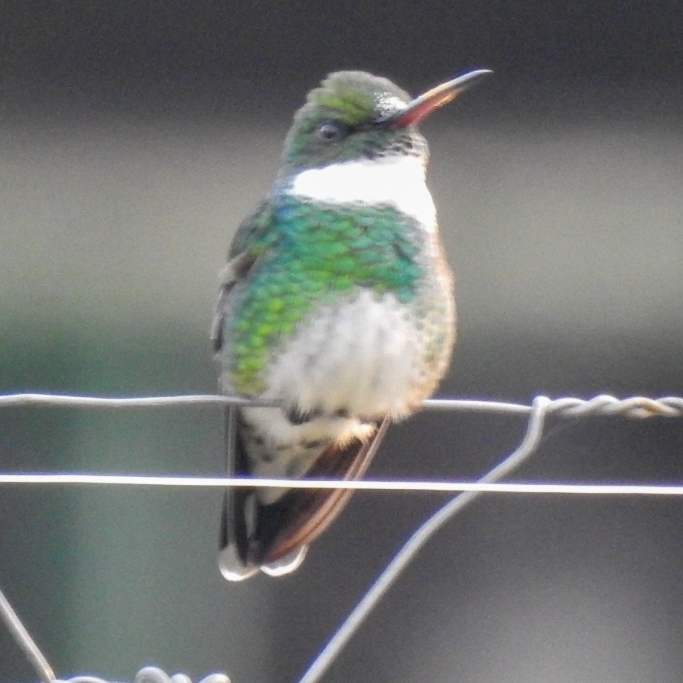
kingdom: Animalia
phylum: Chordata
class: Aves
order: Apodiformes
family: Trochilidae
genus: Leucochloris
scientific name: Leucochloris albicollis
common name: White-throated hummingbird
